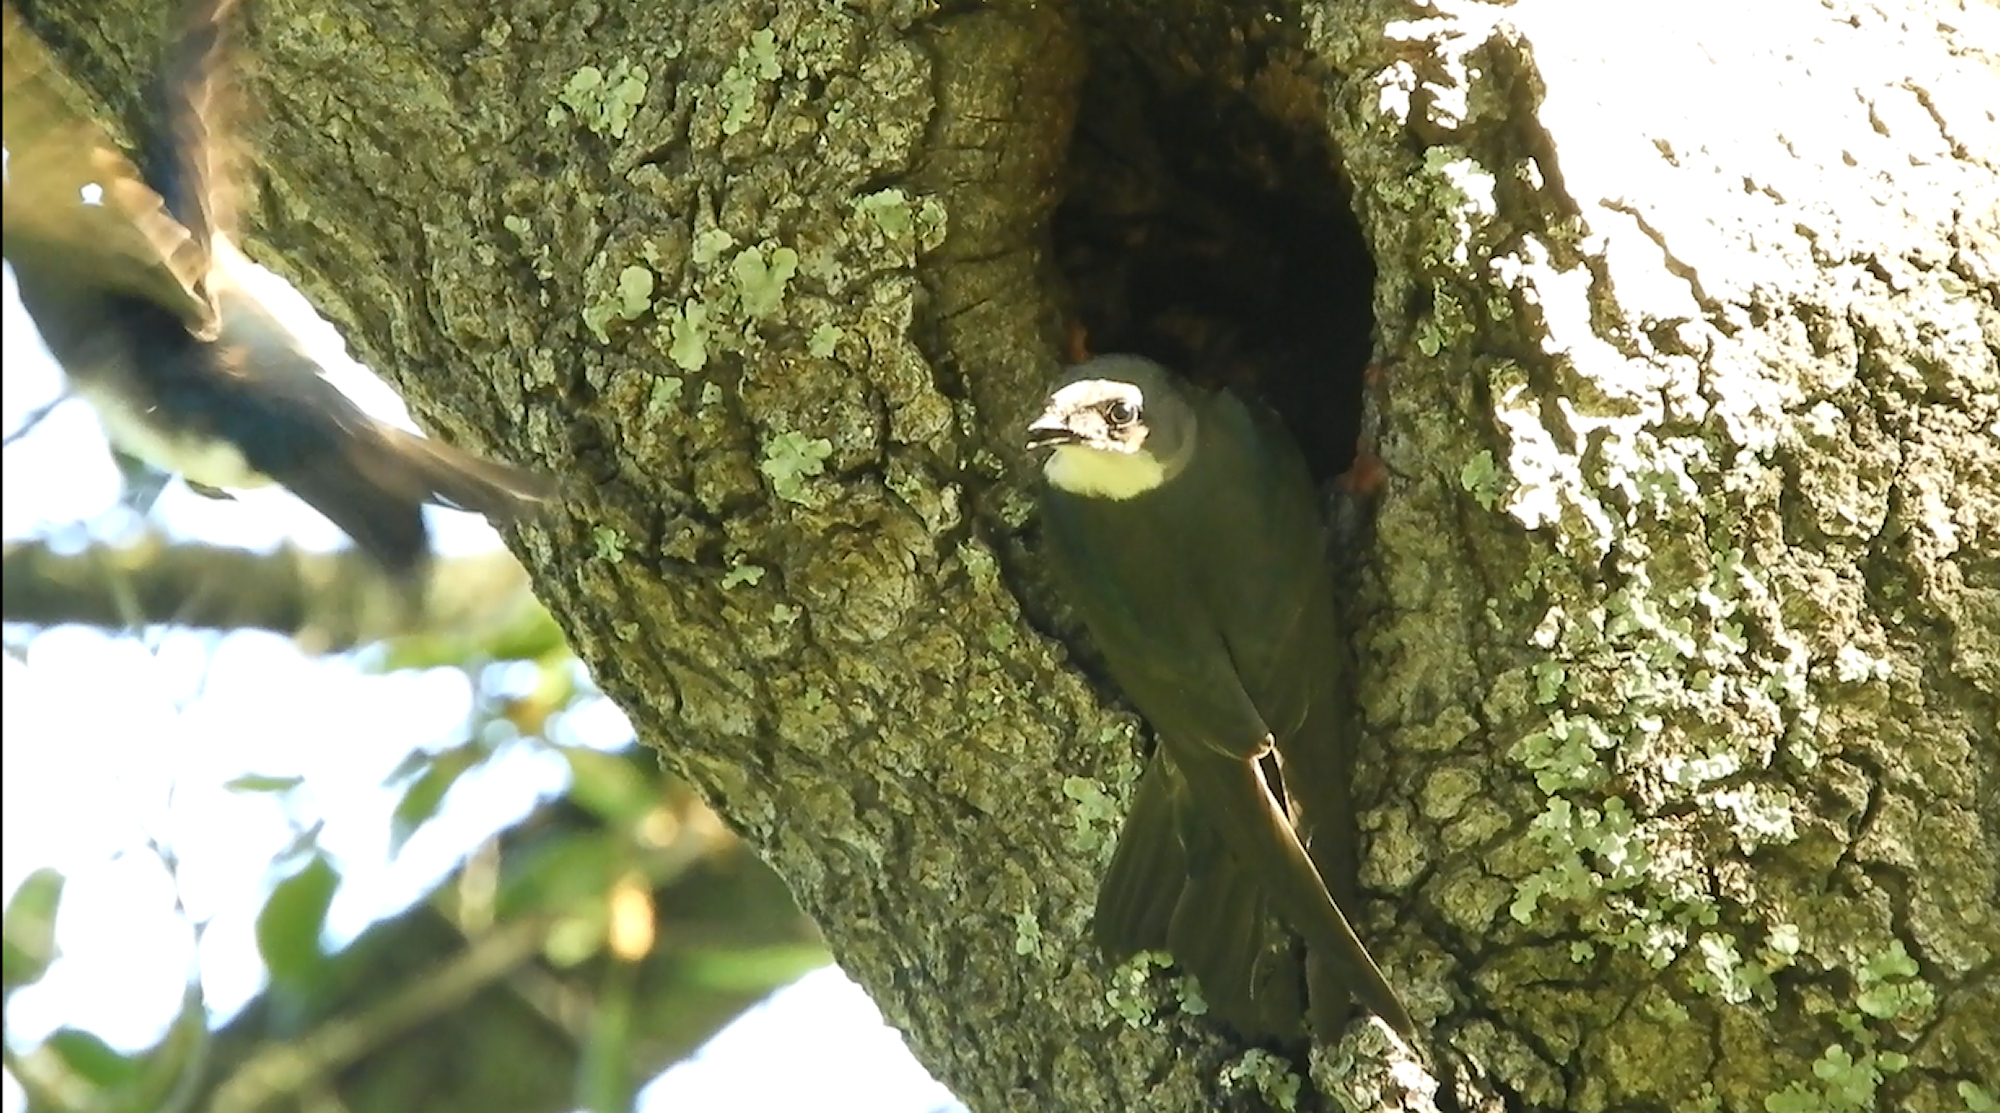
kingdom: Animalia
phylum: Chordata
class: Aves
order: Passeriformes
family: Hirundinidae
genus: Tachycineta
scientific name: Tachycineta bicolor
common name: Tree swallow
